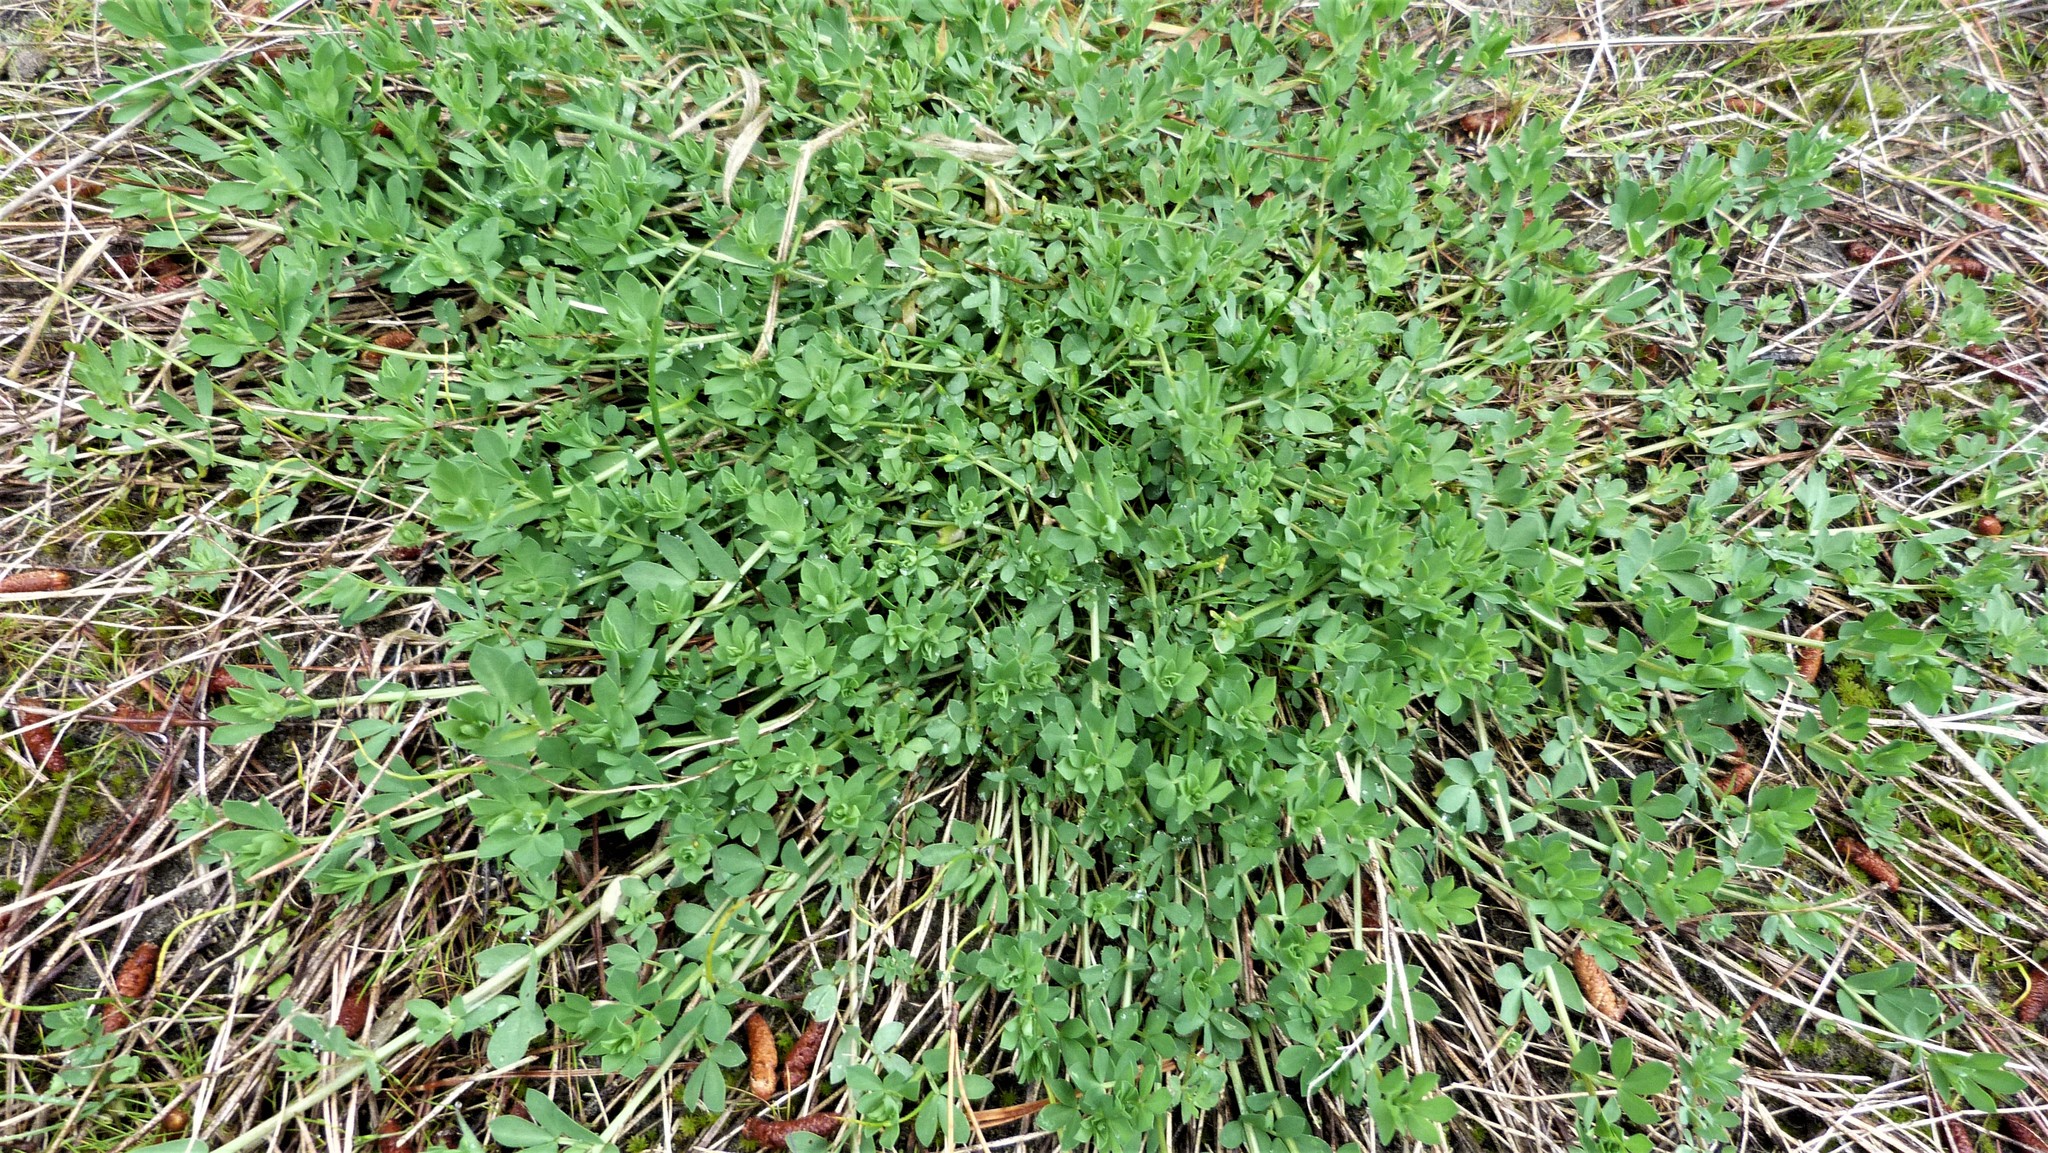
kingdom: Plantae
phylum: Tracheophyta
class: Magnoliopsida
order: Fabales
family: Fabaceae
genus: Lotus
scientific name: Lotus pedunculatus
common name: Greater birdsfoot-trefoil
